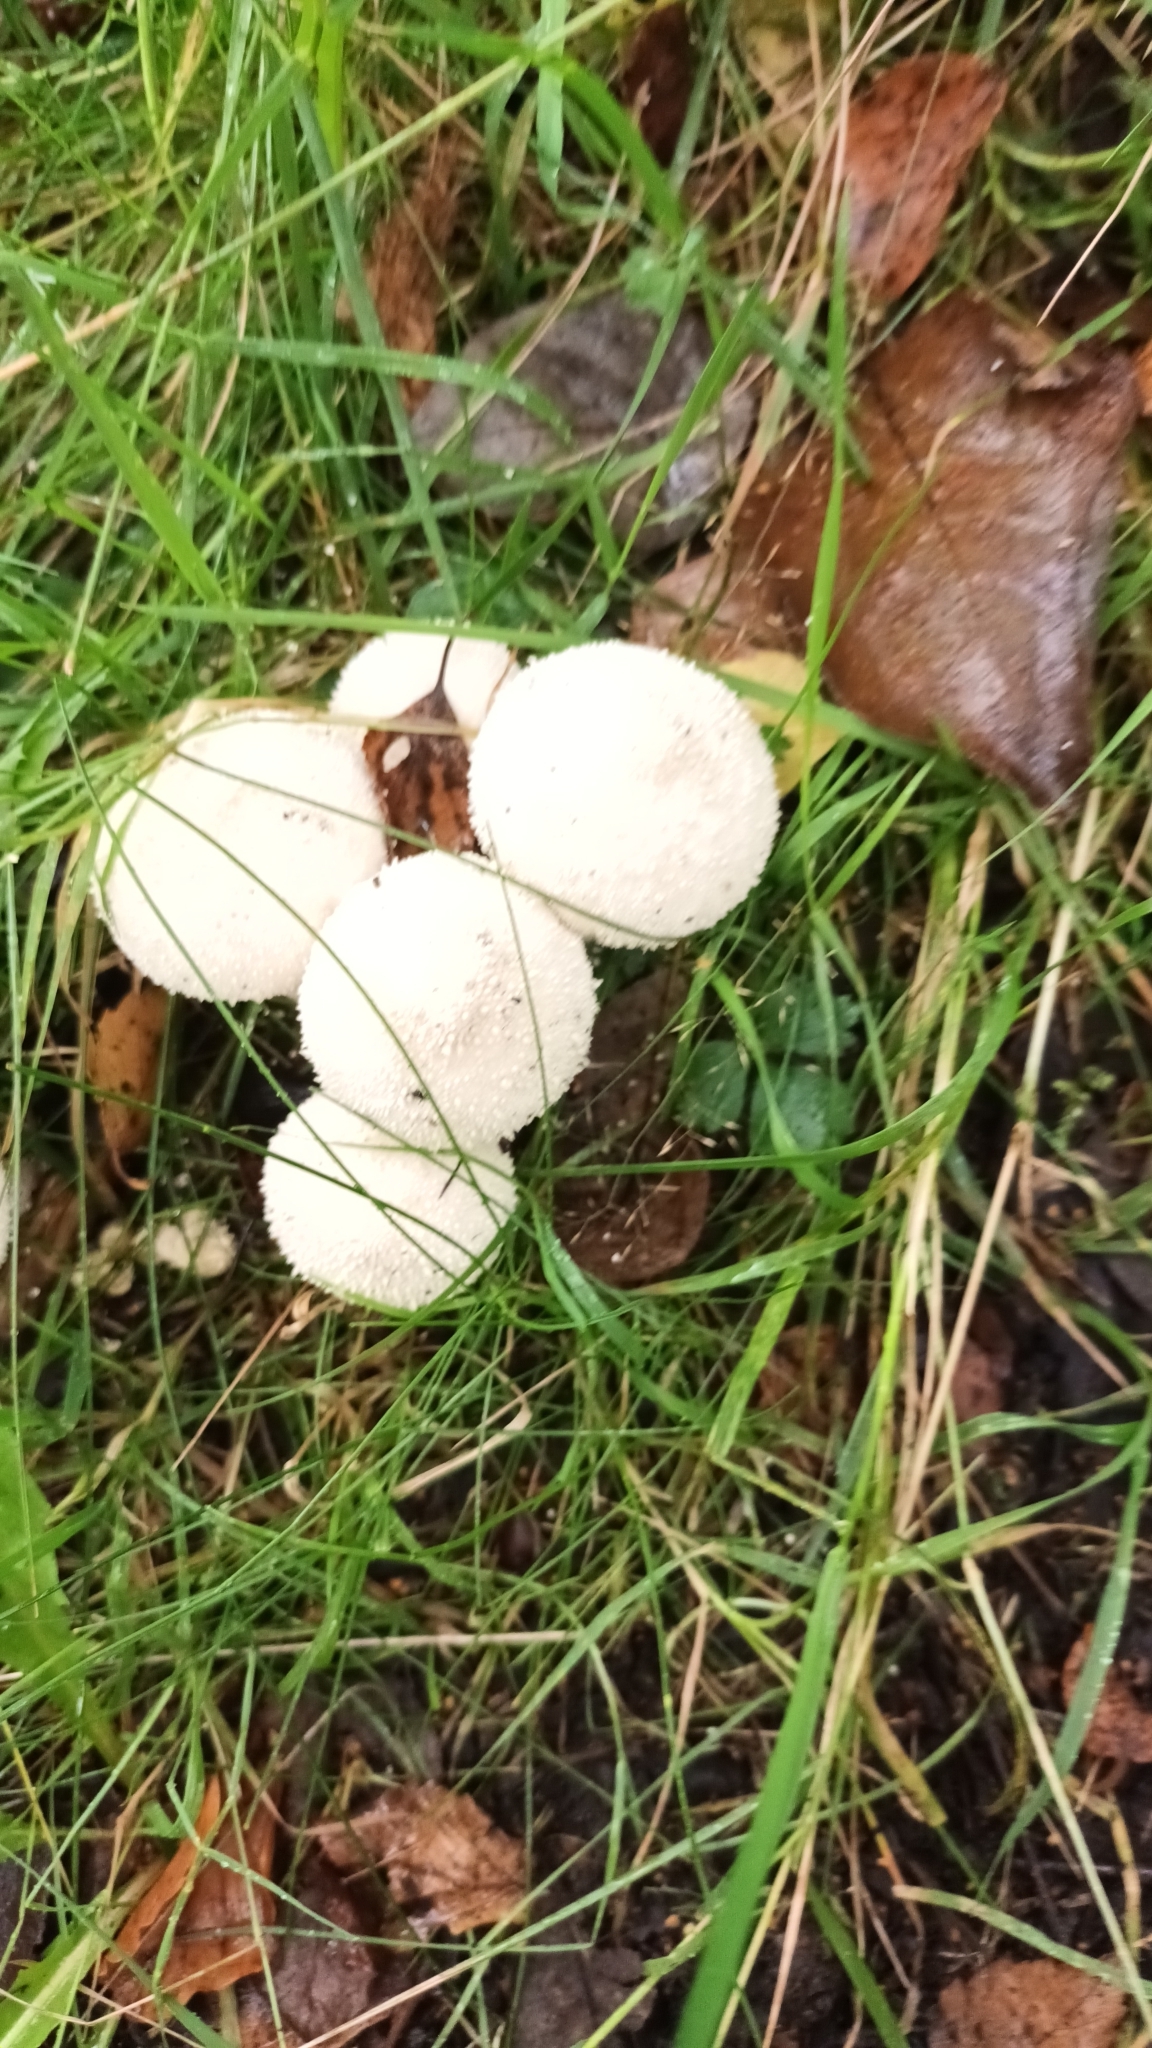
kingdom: Fungi
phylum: Basidiomycota
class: Agaricomycetes
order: Agaricales
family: Lycoperdaceae
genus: Lycoperdon
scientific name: Lycoperdon perlatum
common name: Common puffball
